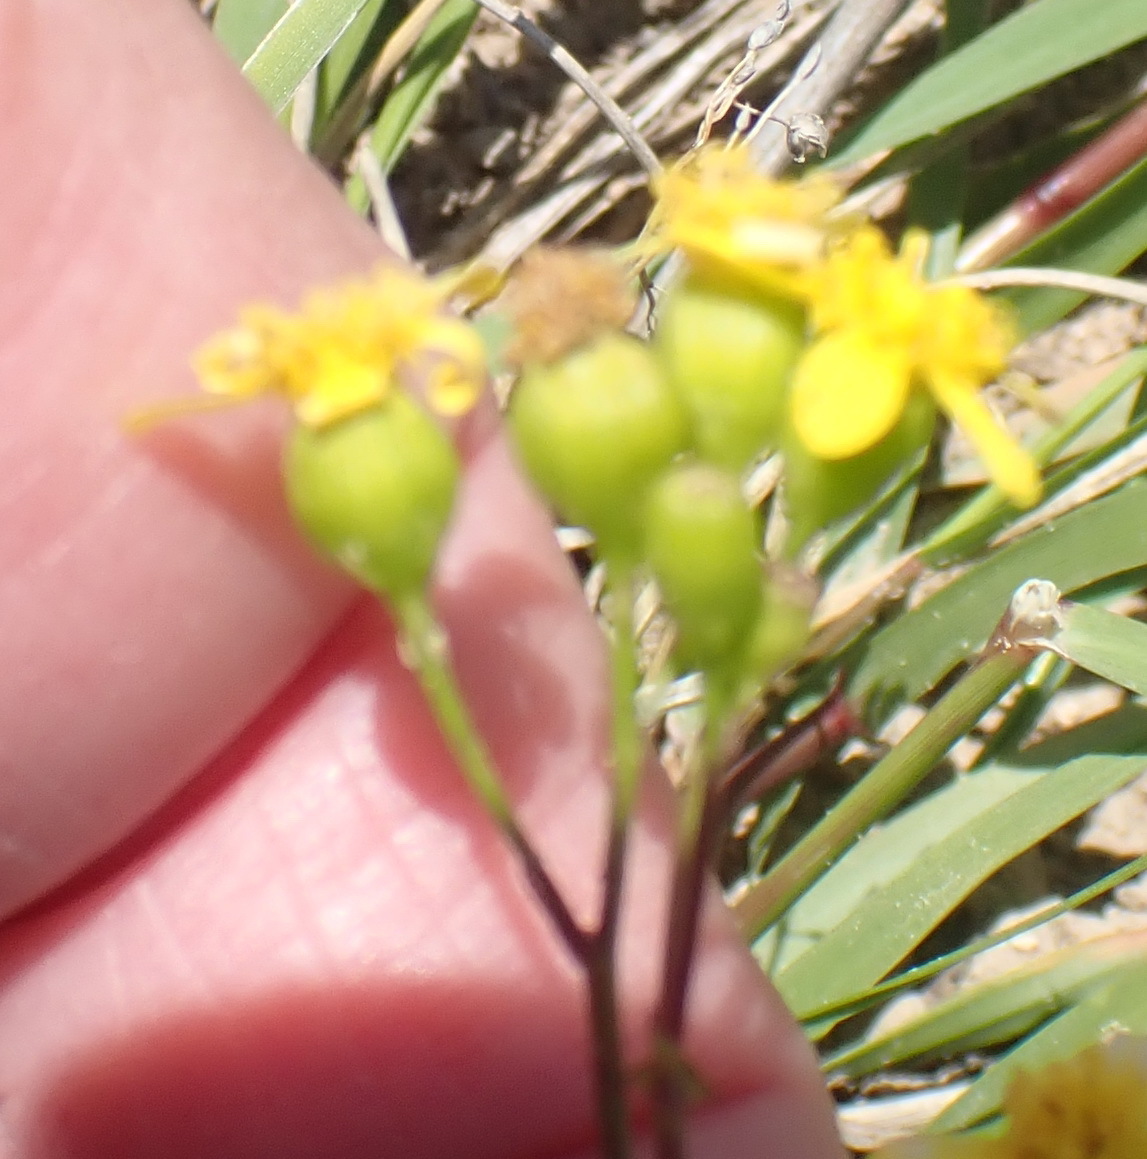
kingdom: Plantae
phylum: Tracheophyta
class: Magnoliopsida
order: Asterales
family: Asteraceae
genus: Cineraria
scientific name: Cineraria saxifraga
